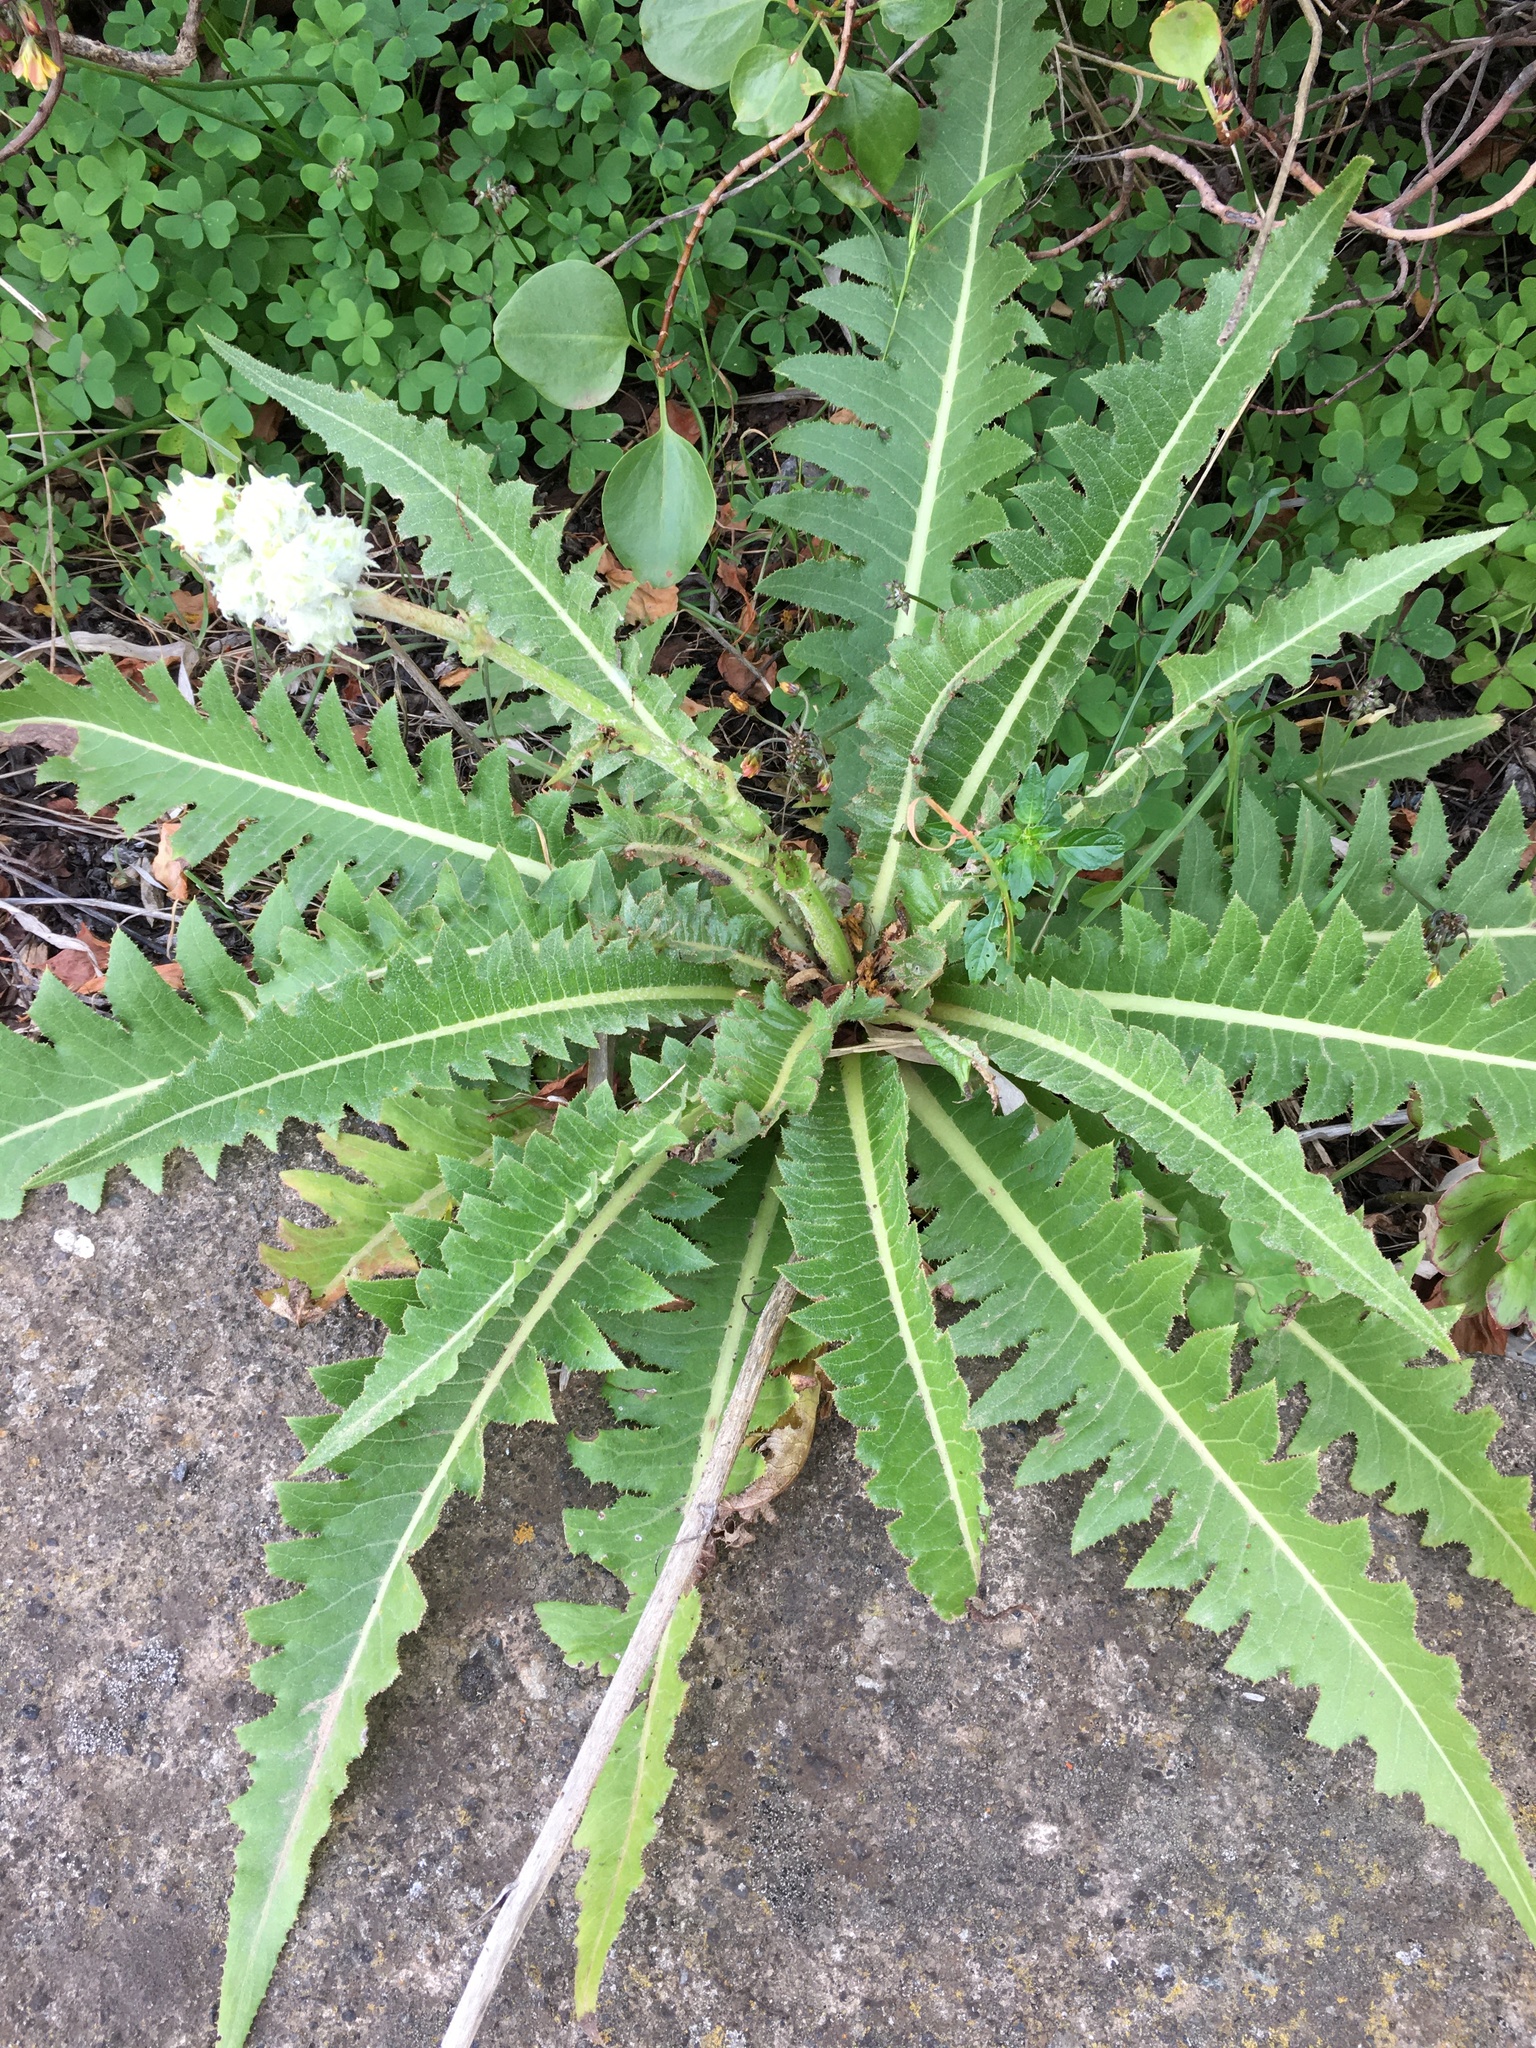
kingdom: Plantae
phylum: Tracheophyta
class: Magnoliopsida
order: Asterales
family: Asteraceae
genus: Sonchus
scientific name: Sonchus acaulis
